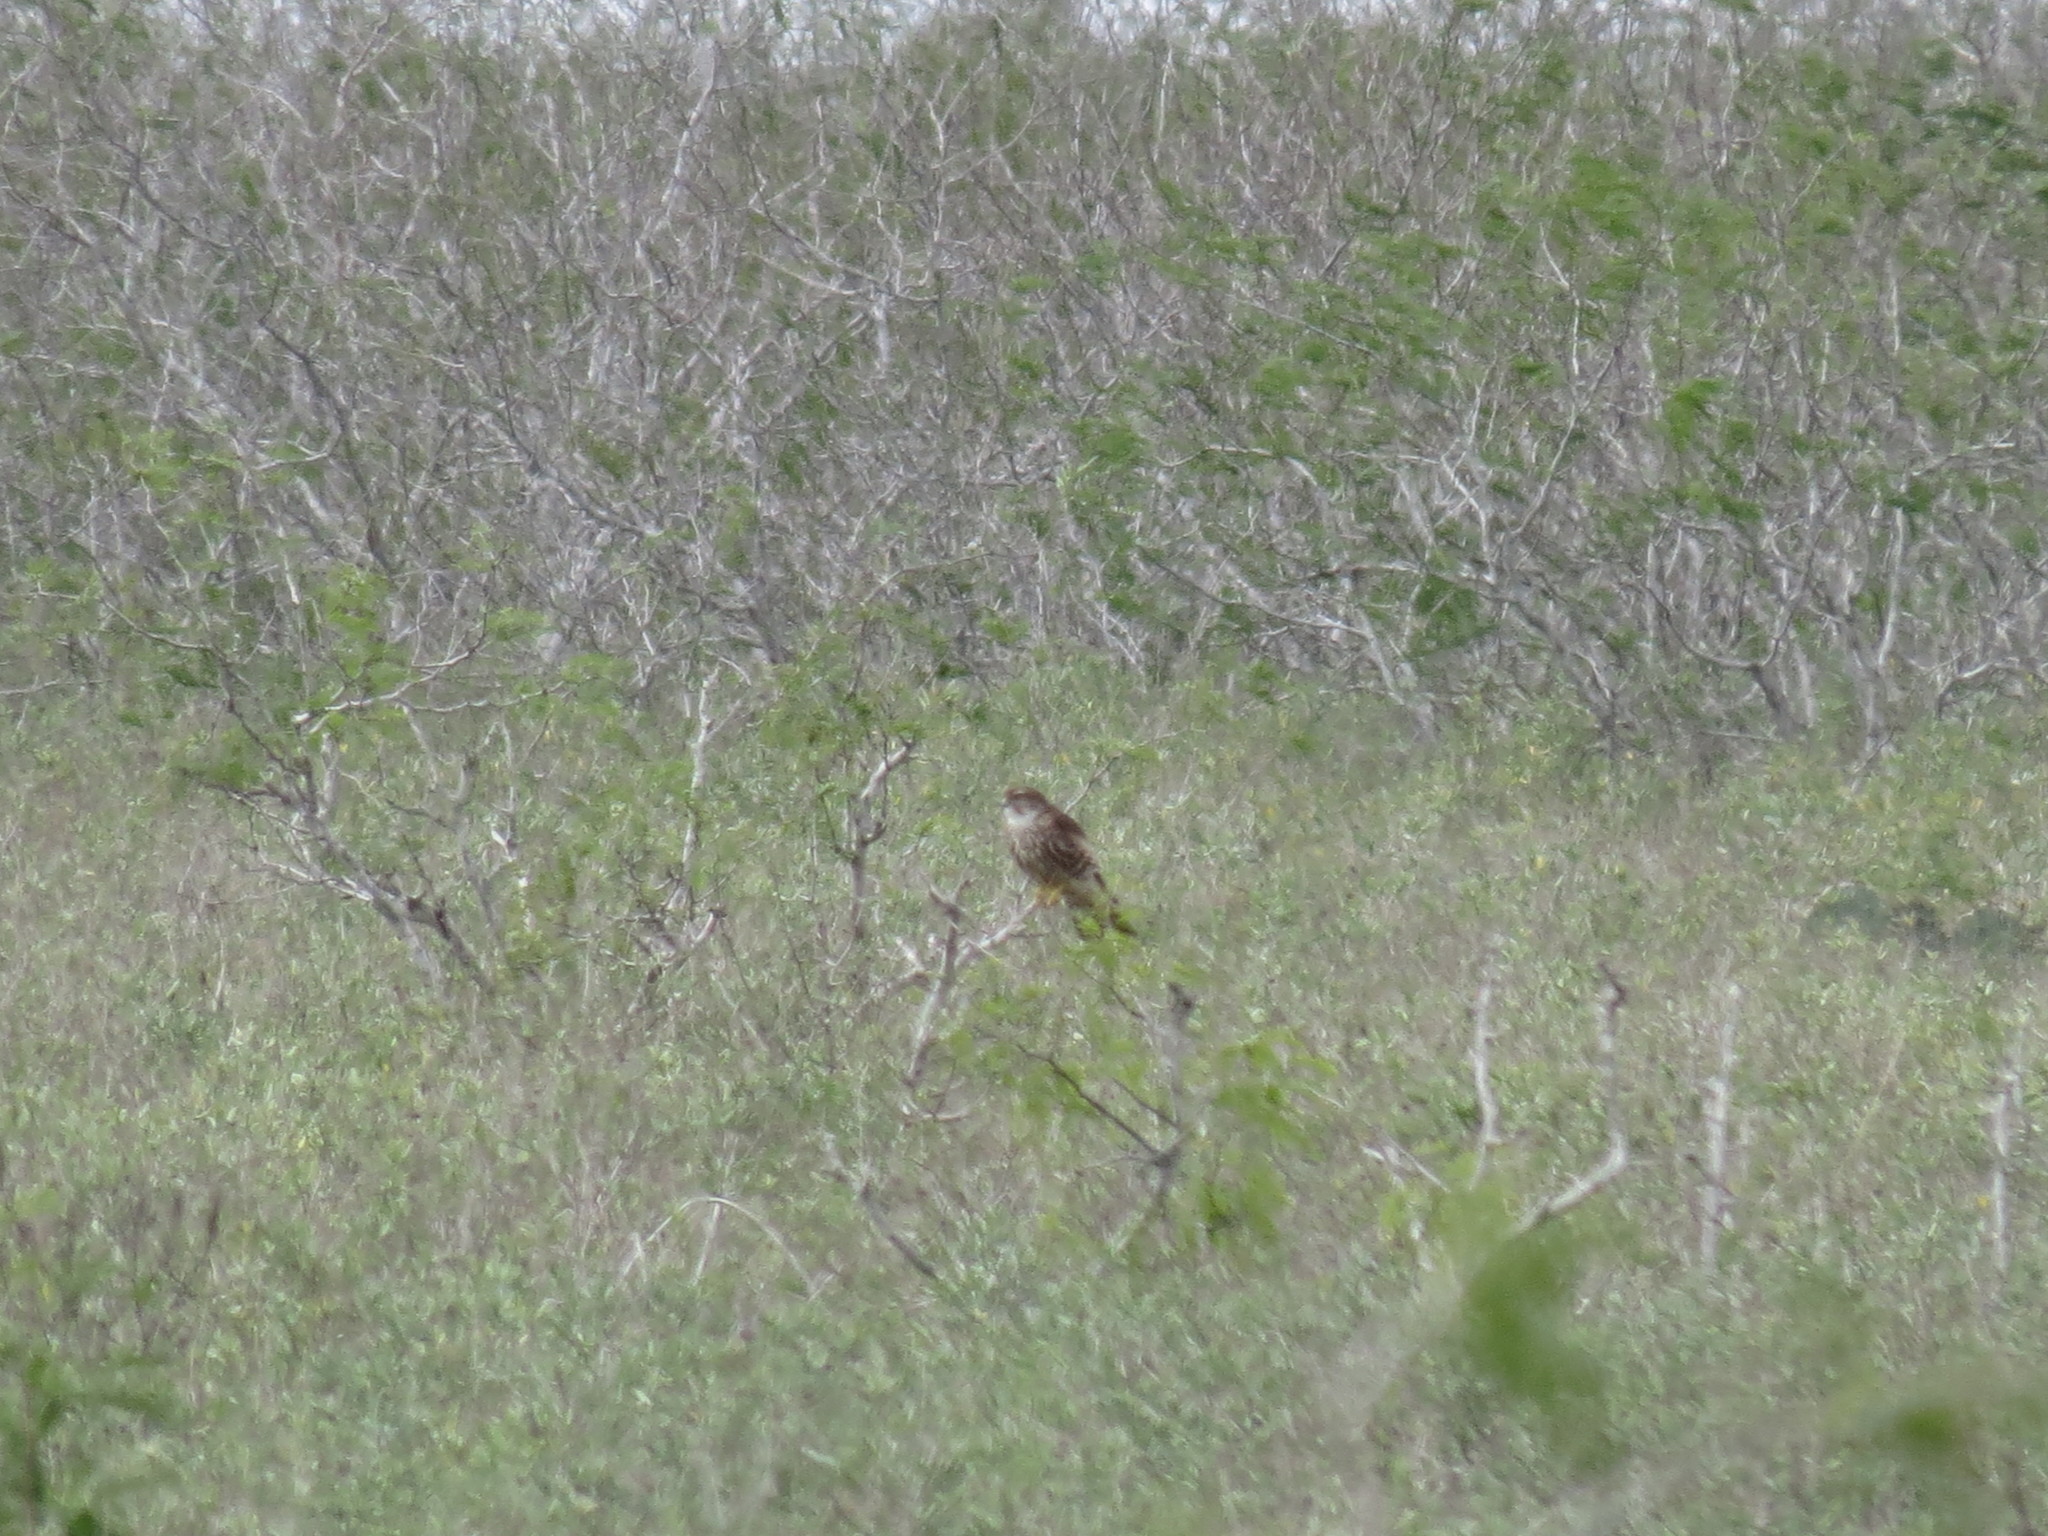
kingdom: Animalia
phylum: Chordata
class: Aves
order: Falconiformes
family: Falconidae
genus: Falco
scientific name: Falco columbarius
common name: Merlin
